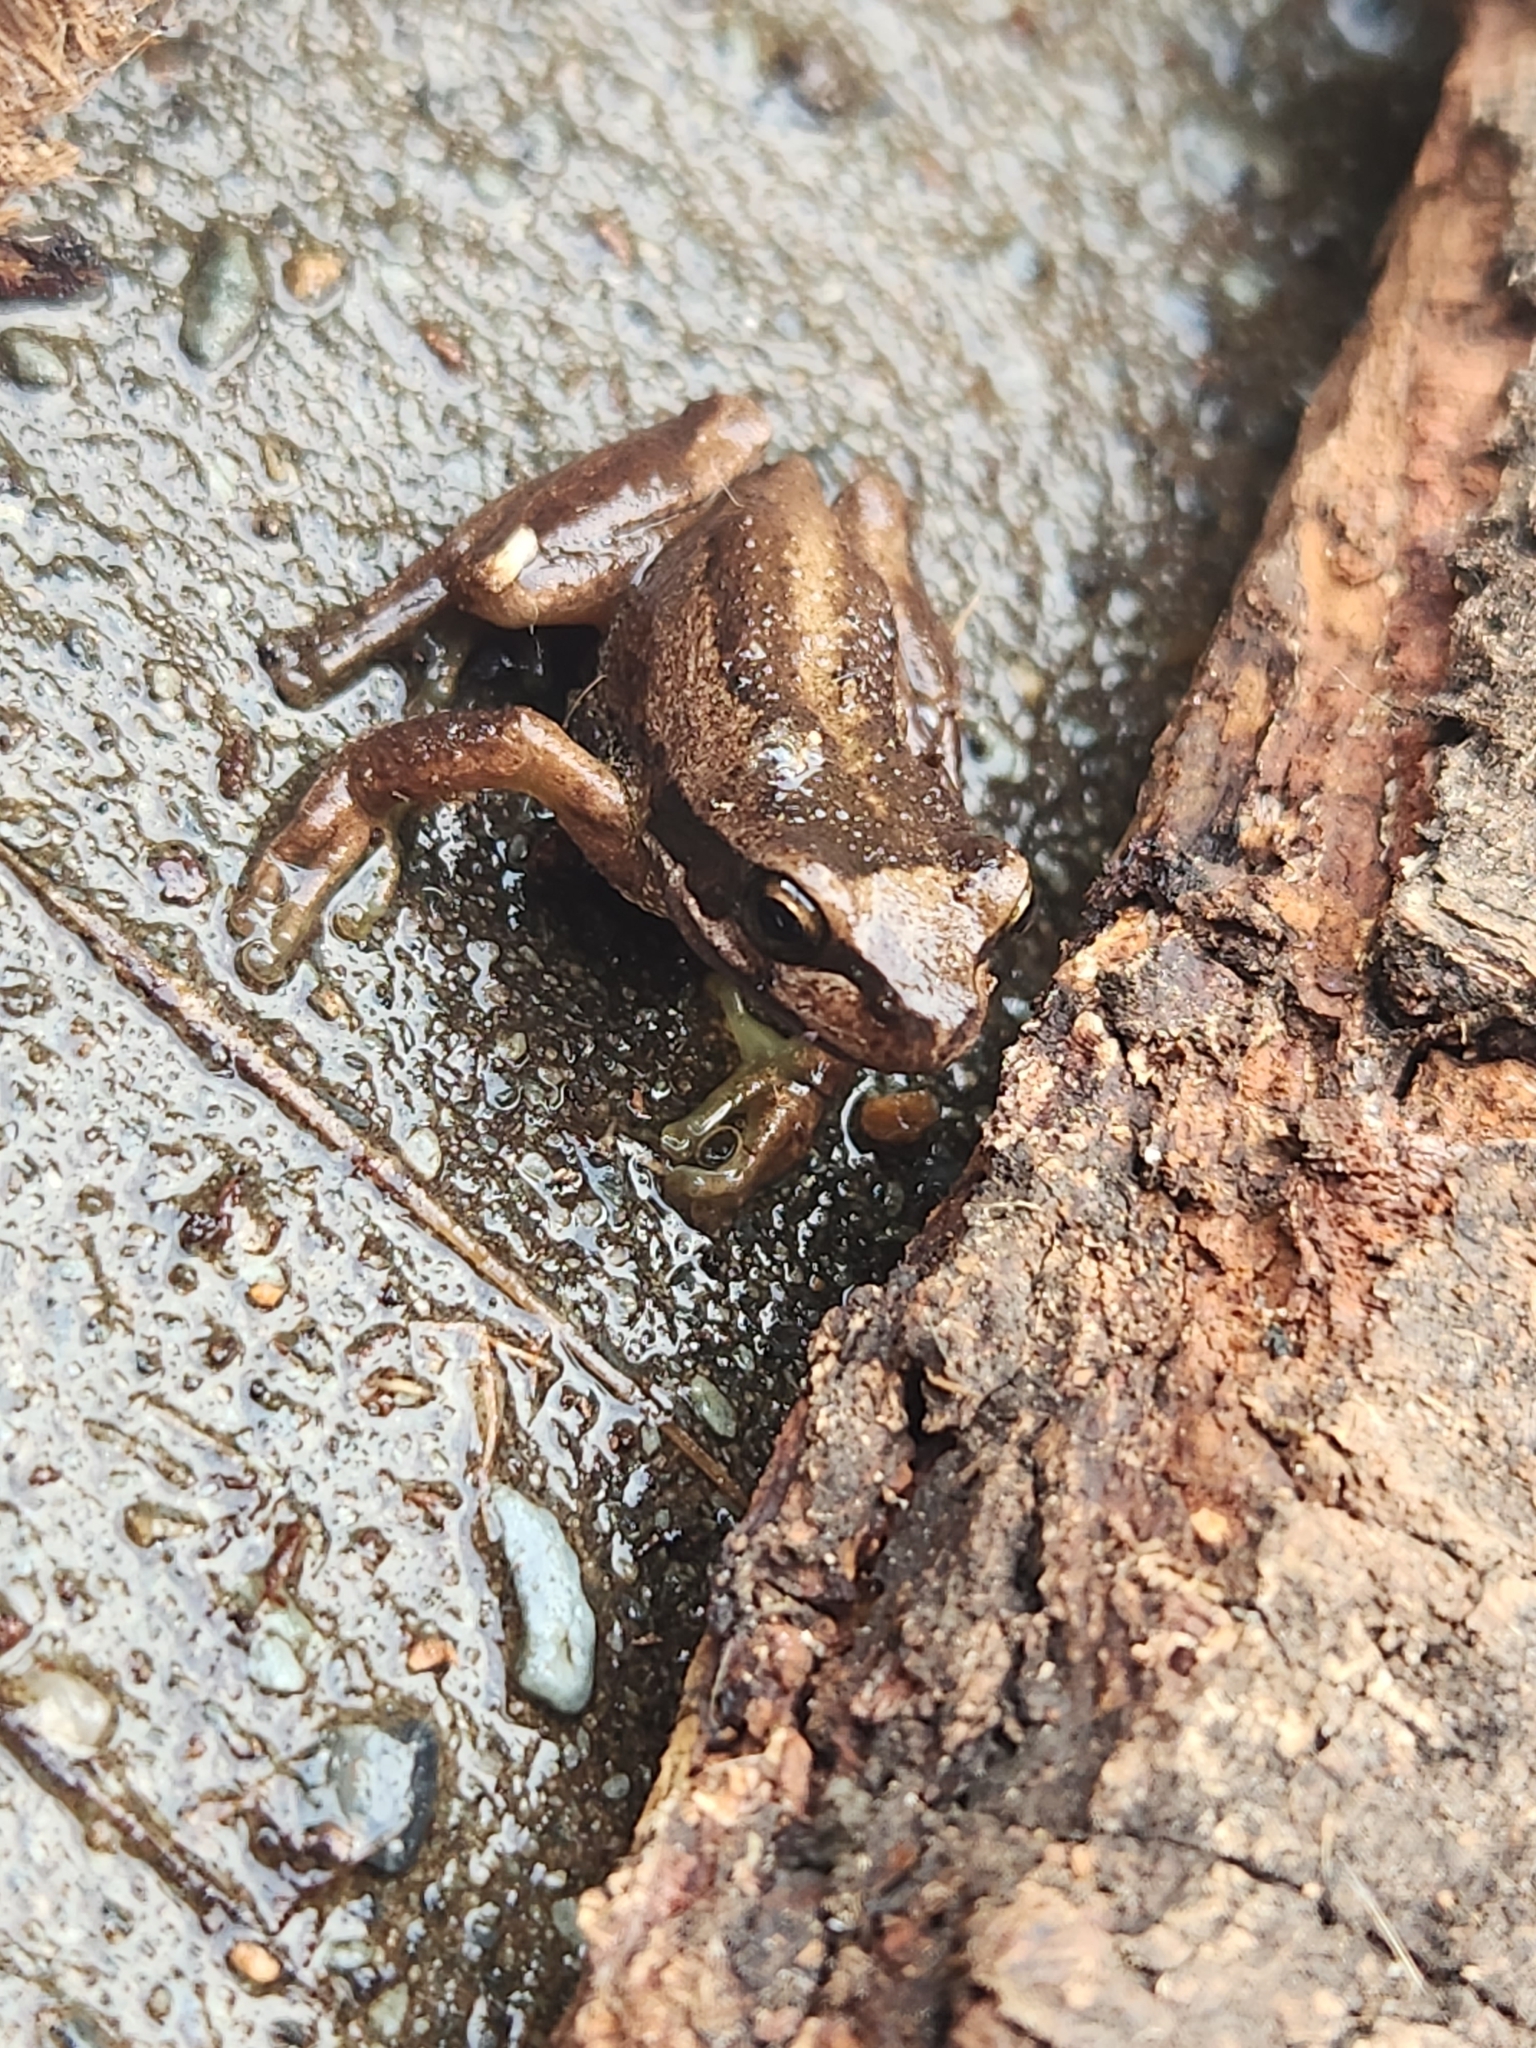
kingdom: Animalia
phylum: Chordata
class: Amphibia
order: Anura
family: Pelodryadidae
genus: Litoria
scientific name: Litoria ewingii
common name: Southern brown tree frog
